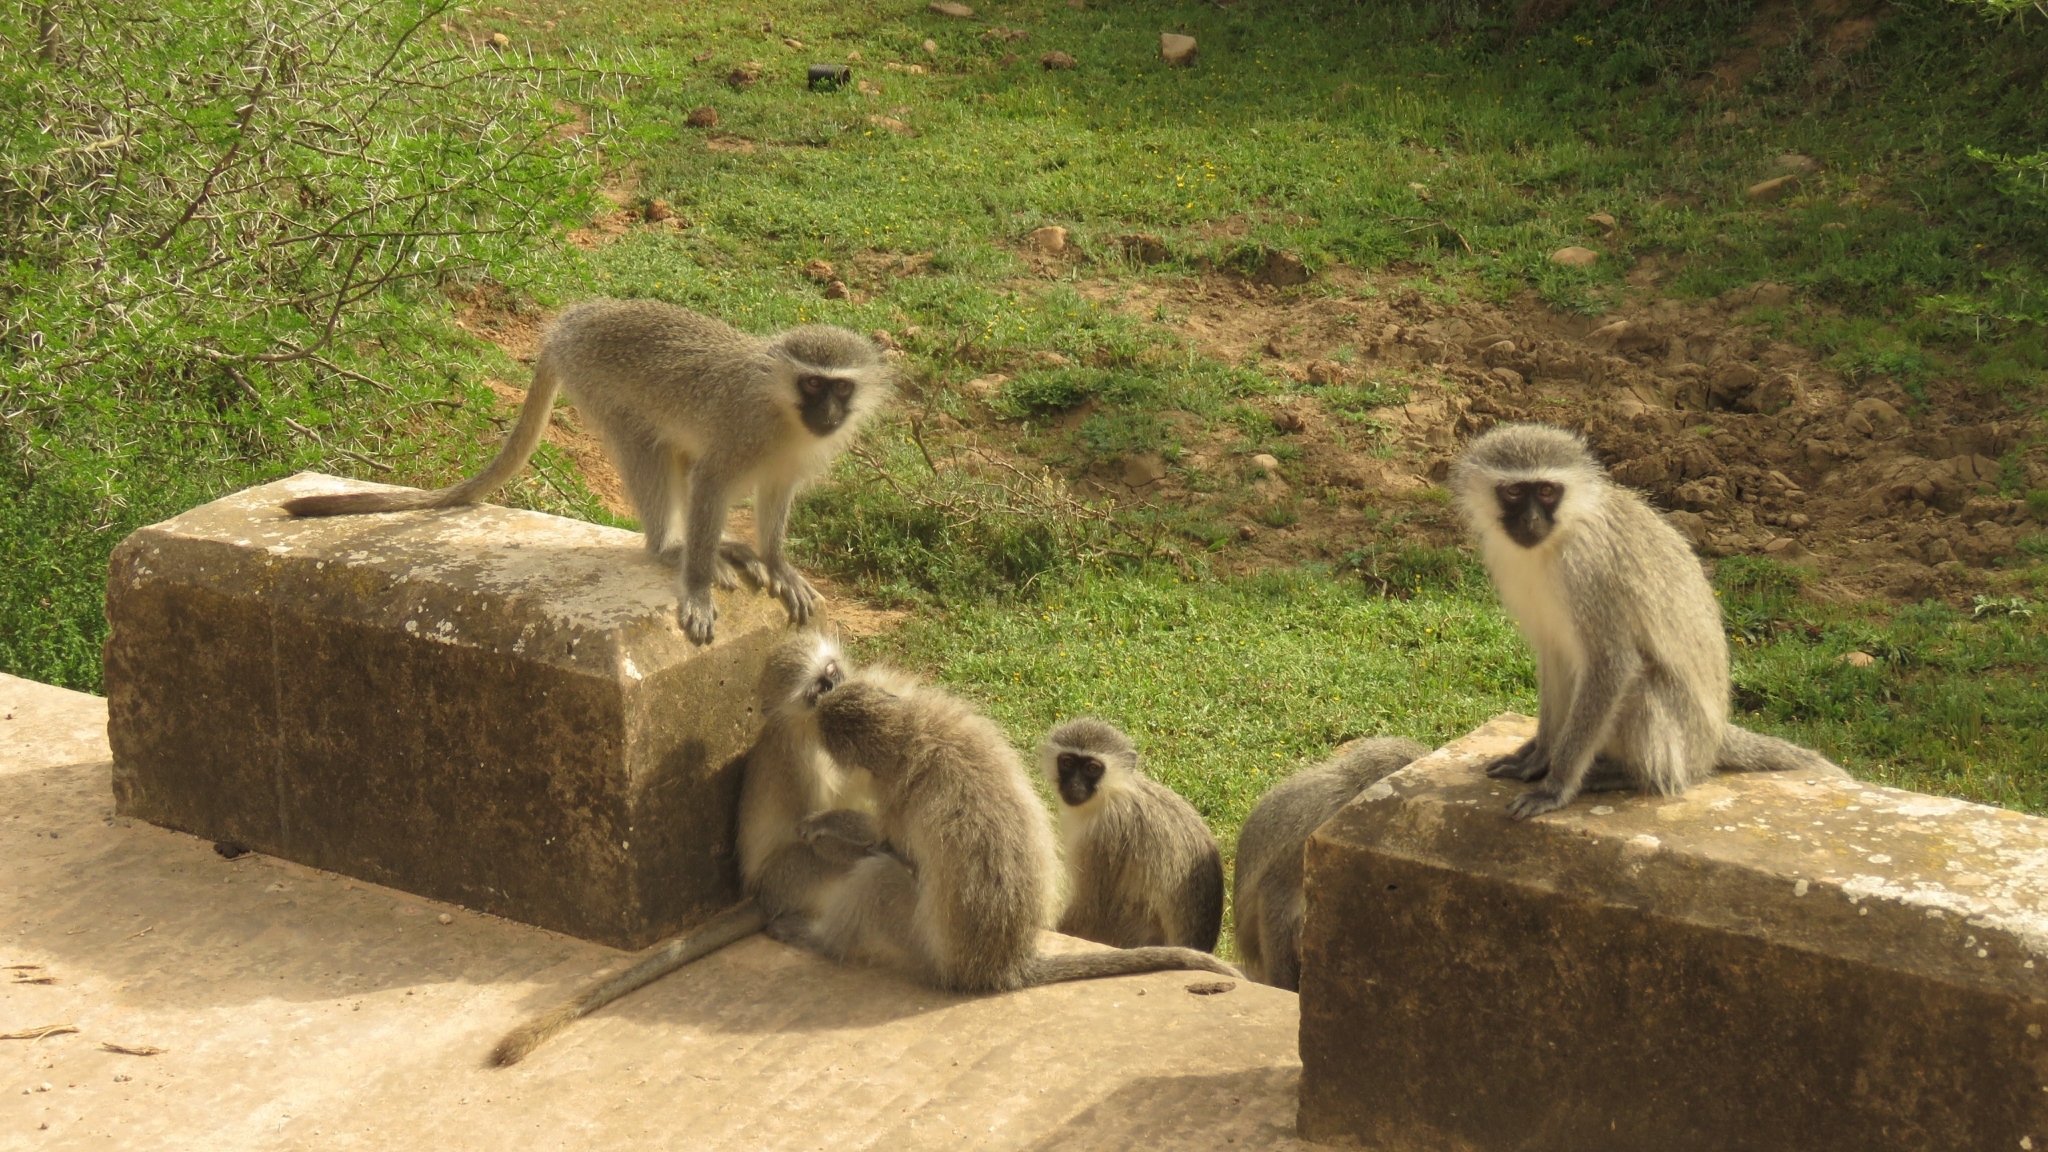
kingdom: Animalia
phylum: Chordata
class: Mammalia
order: Primates
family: Cercopithecidae
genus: Chlorocebus
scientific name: Chlorocebus pygerythrus
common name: Vervet monkey
